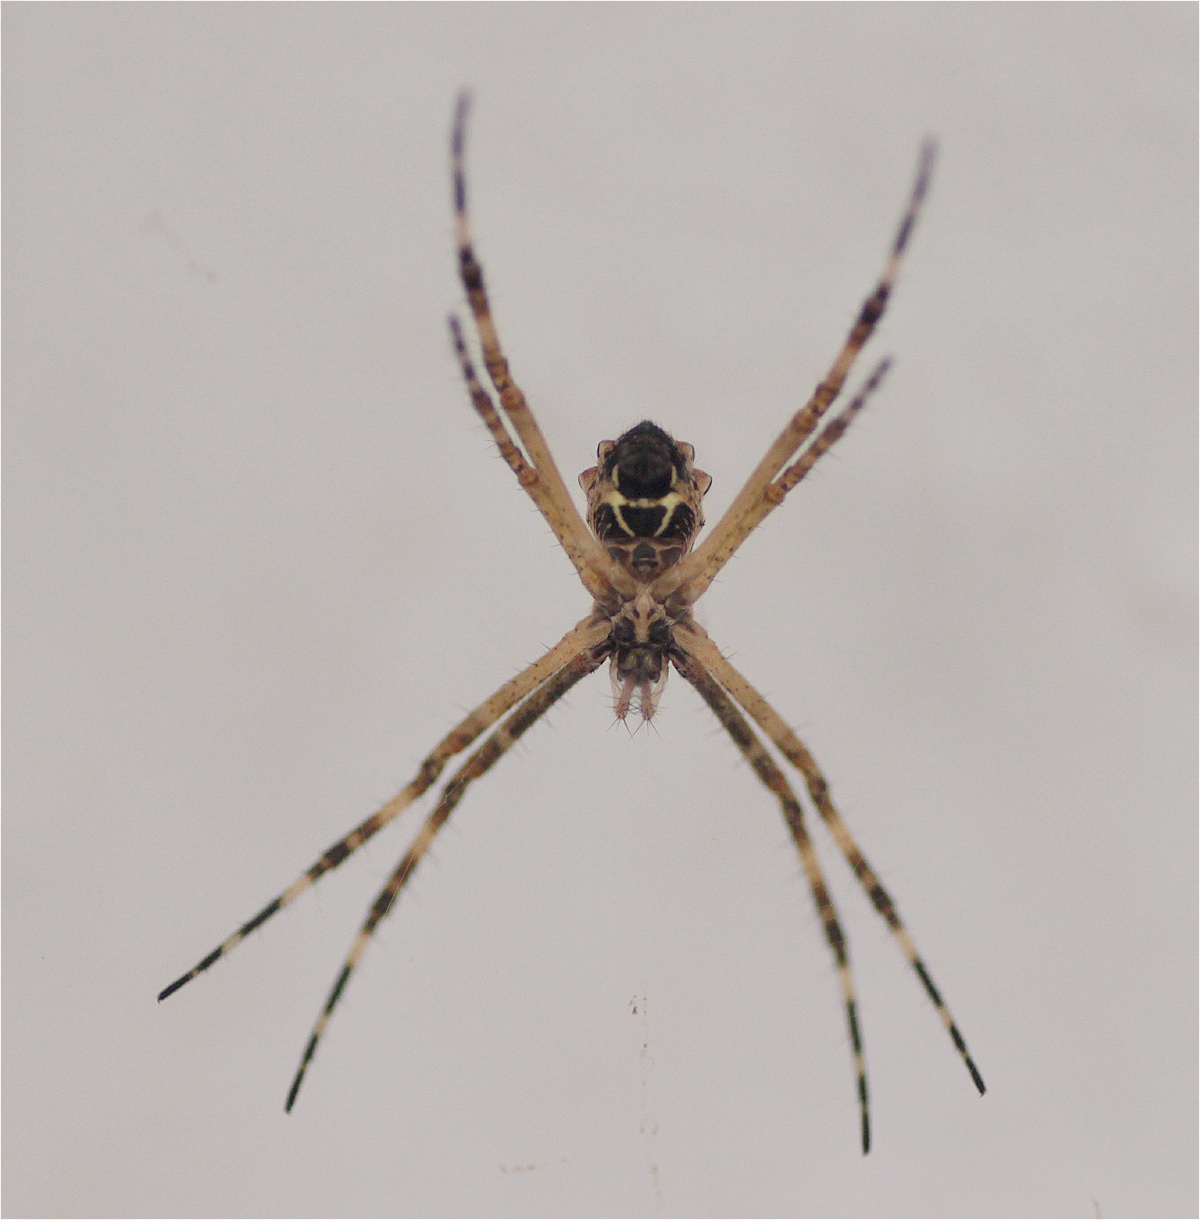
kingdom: Animalia
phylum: Arthropoda
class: Arachnida
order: Araneae
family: Araneidae
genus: Argiope
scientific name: Argiope argentata
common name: Orb weavers
